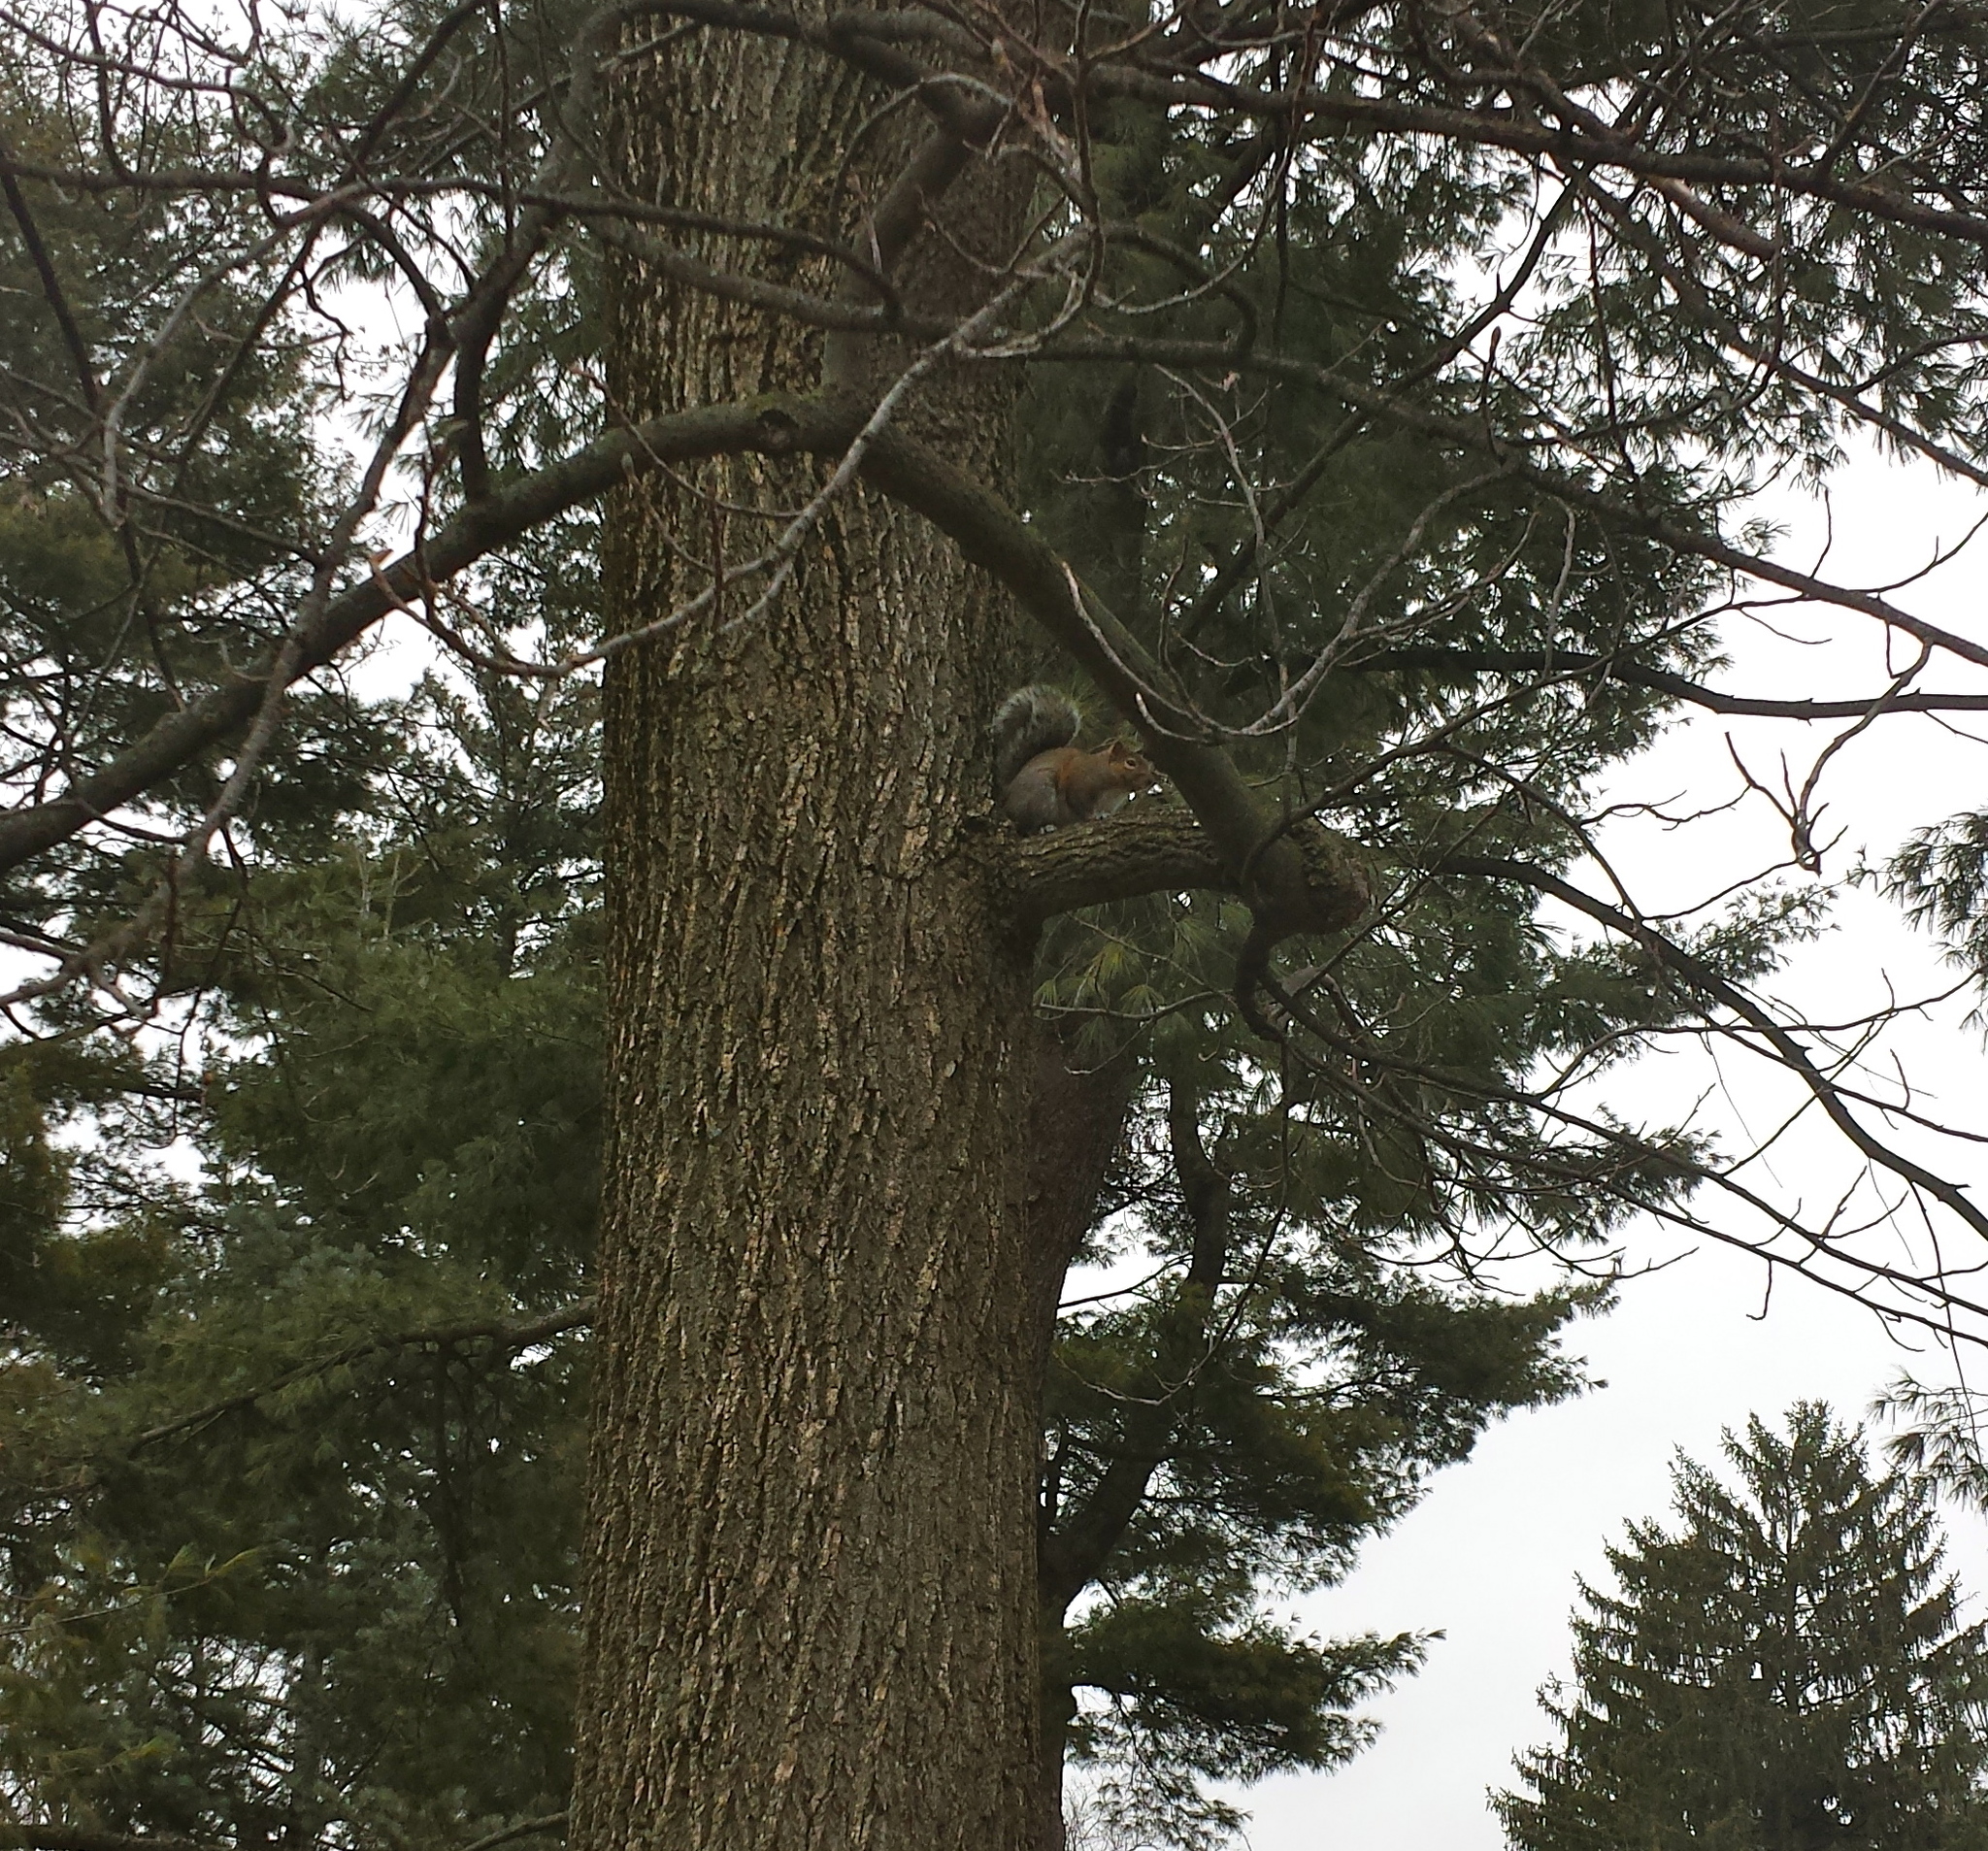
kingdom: Animalia
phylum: Chordata
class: Mammalia
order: Rodentia
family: Sciuridae
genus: Sciurus
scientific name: Sciurus carolinensis
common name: Eastern gray squirrel
